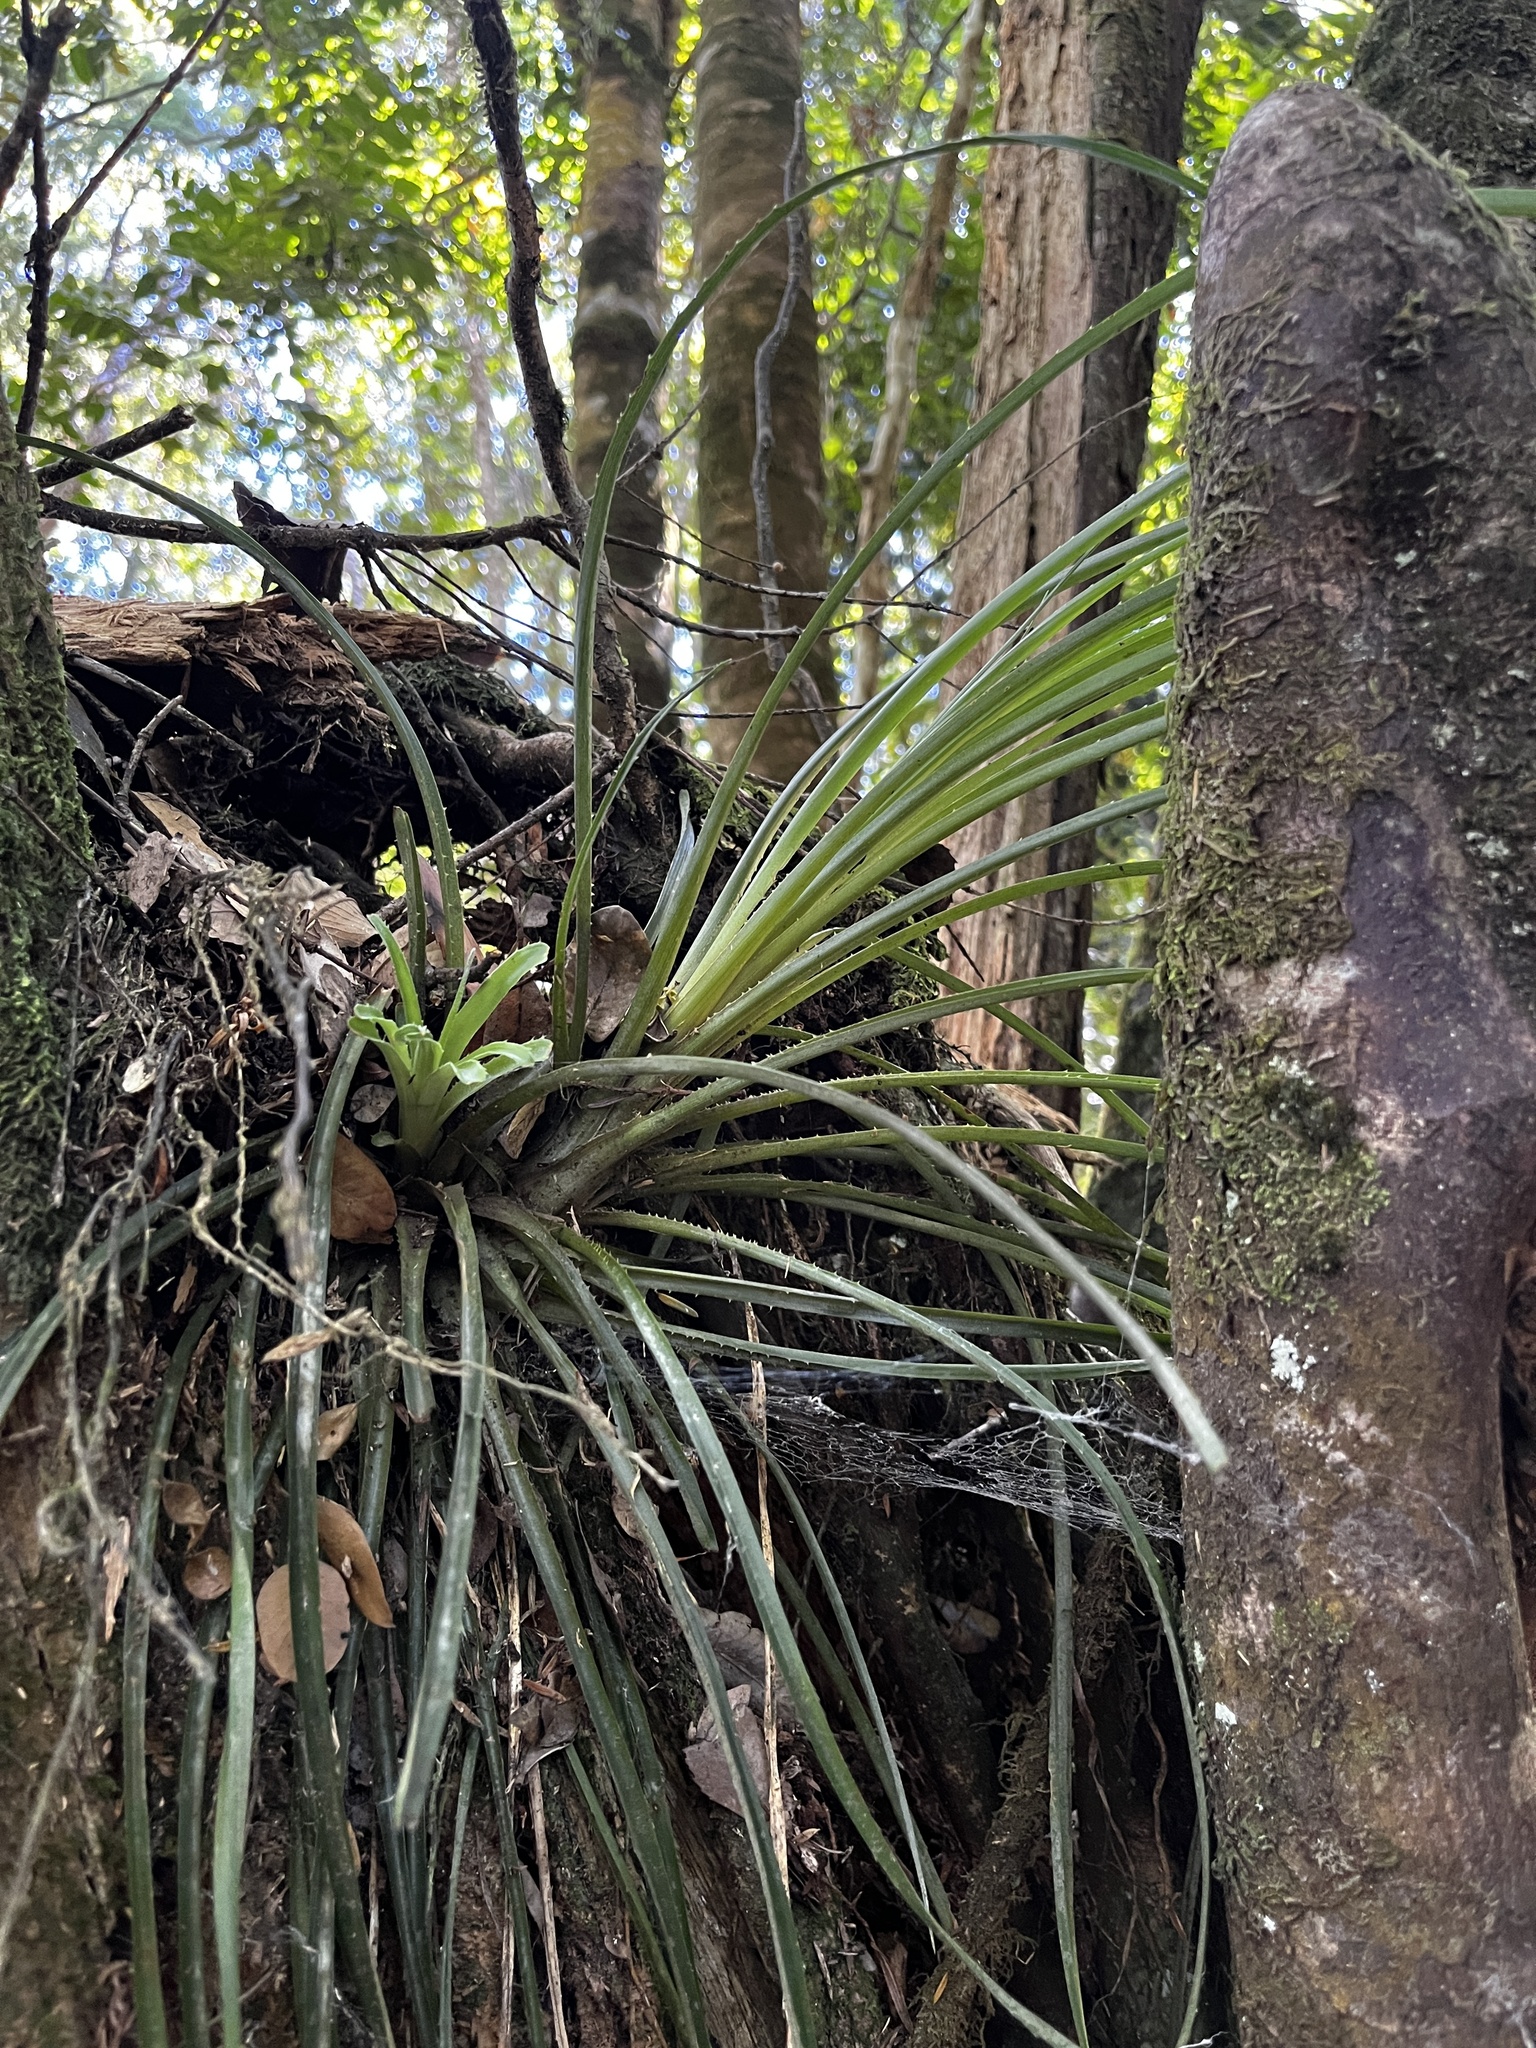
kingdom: Plantae
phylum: Tracheophyta
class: Liliopsida
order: Poales
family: Bromeliaceae
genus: Fascicularia
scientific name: Fascicularia bicolor
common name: Rhodostachys
